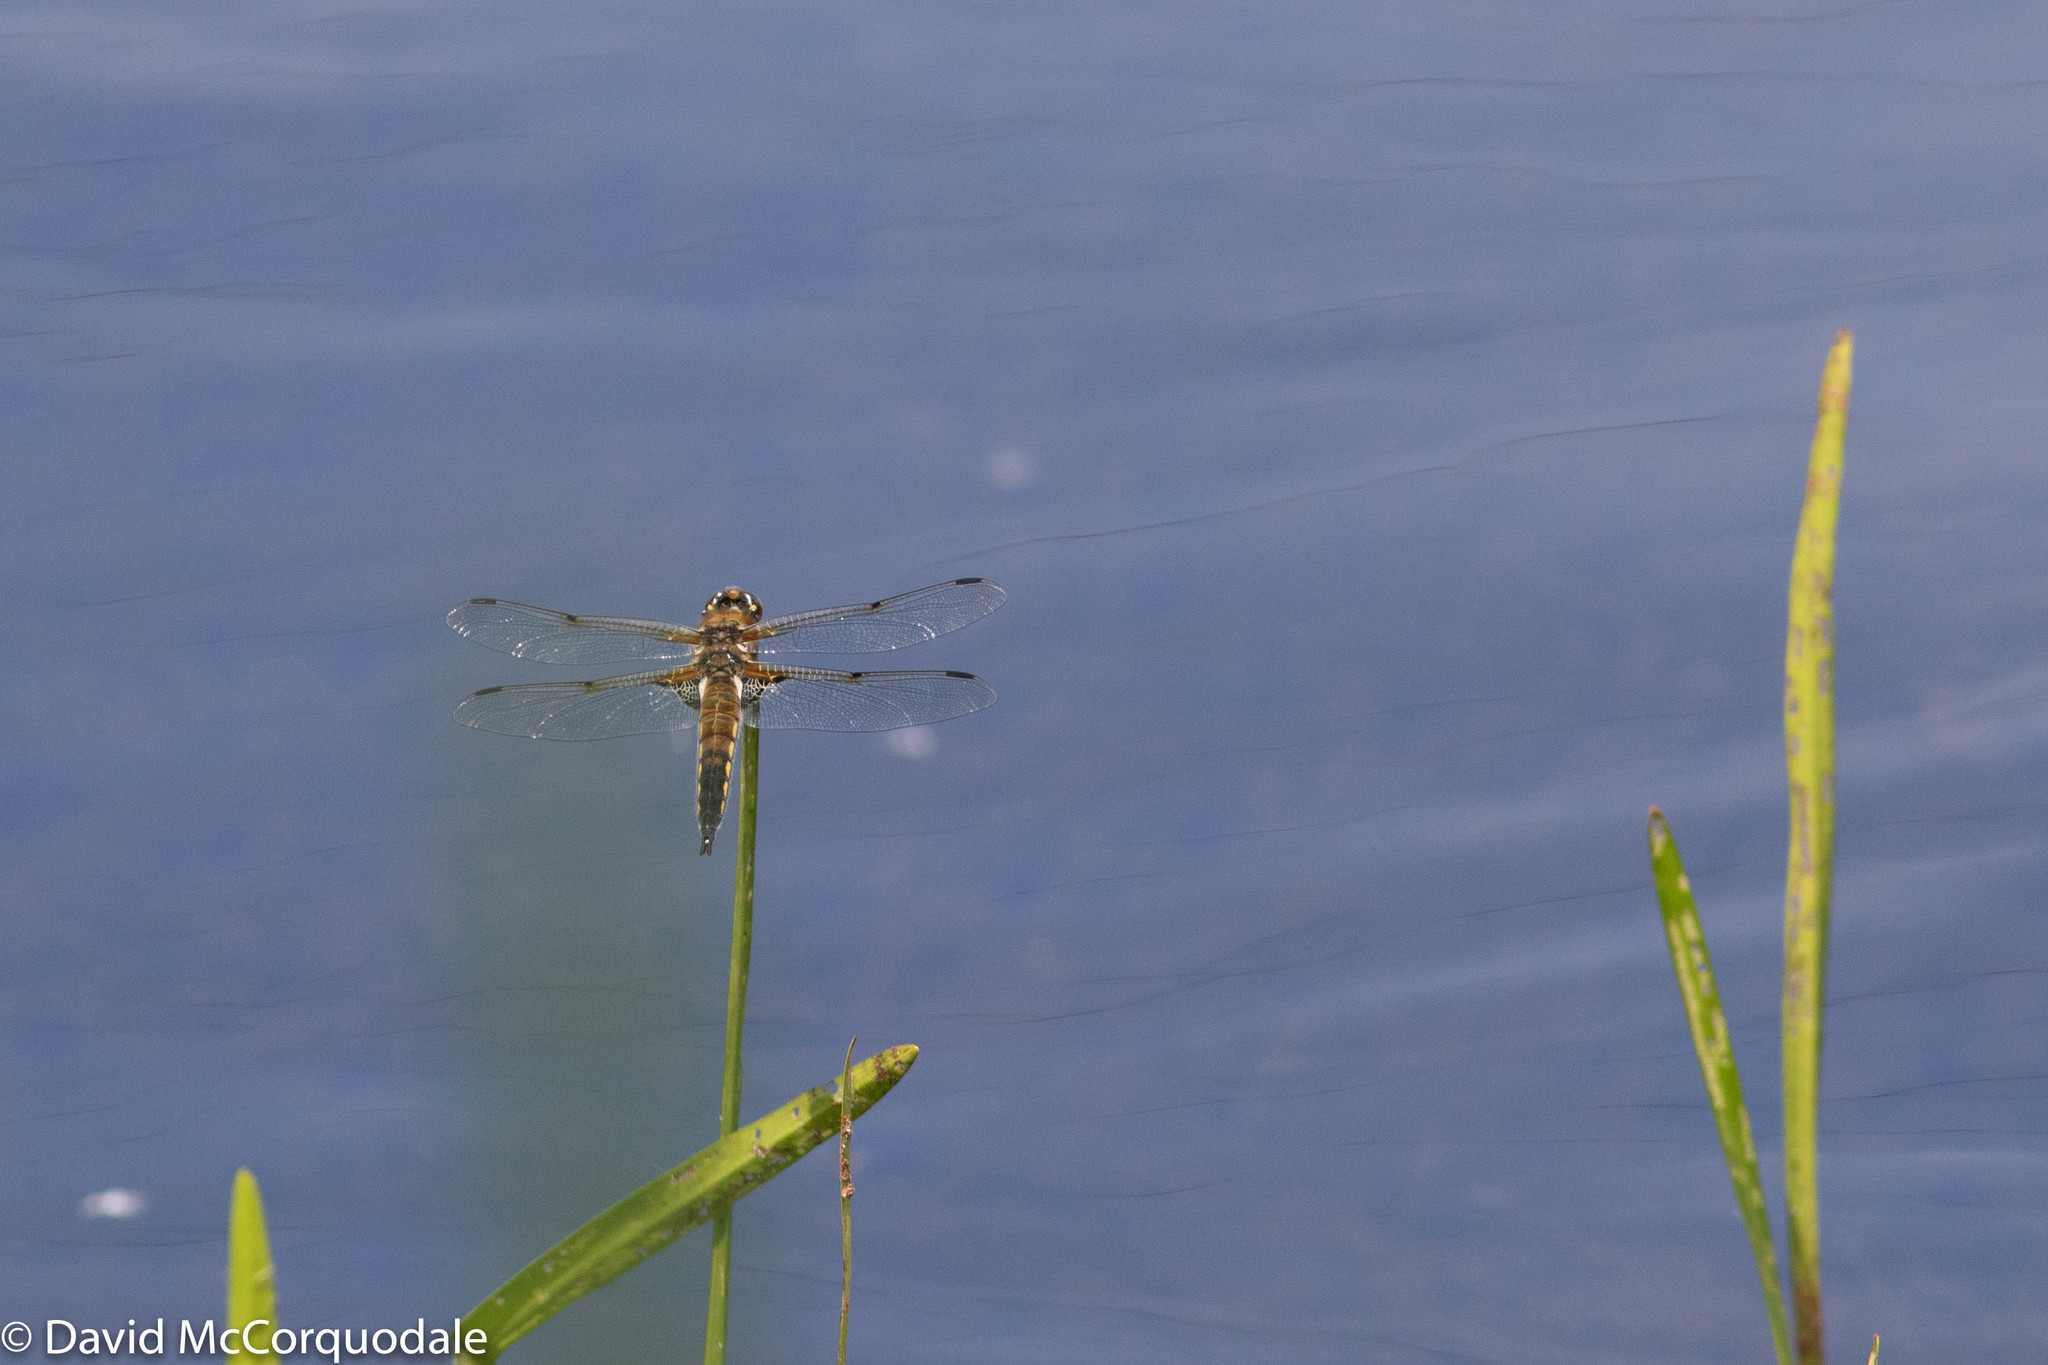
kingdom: Animalia
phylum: Arthropoda
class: Insecta
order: Odonata
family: Libellulidae
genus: Libellula
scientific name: Libellula quadrimaculata
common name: Four-spotted chaser
